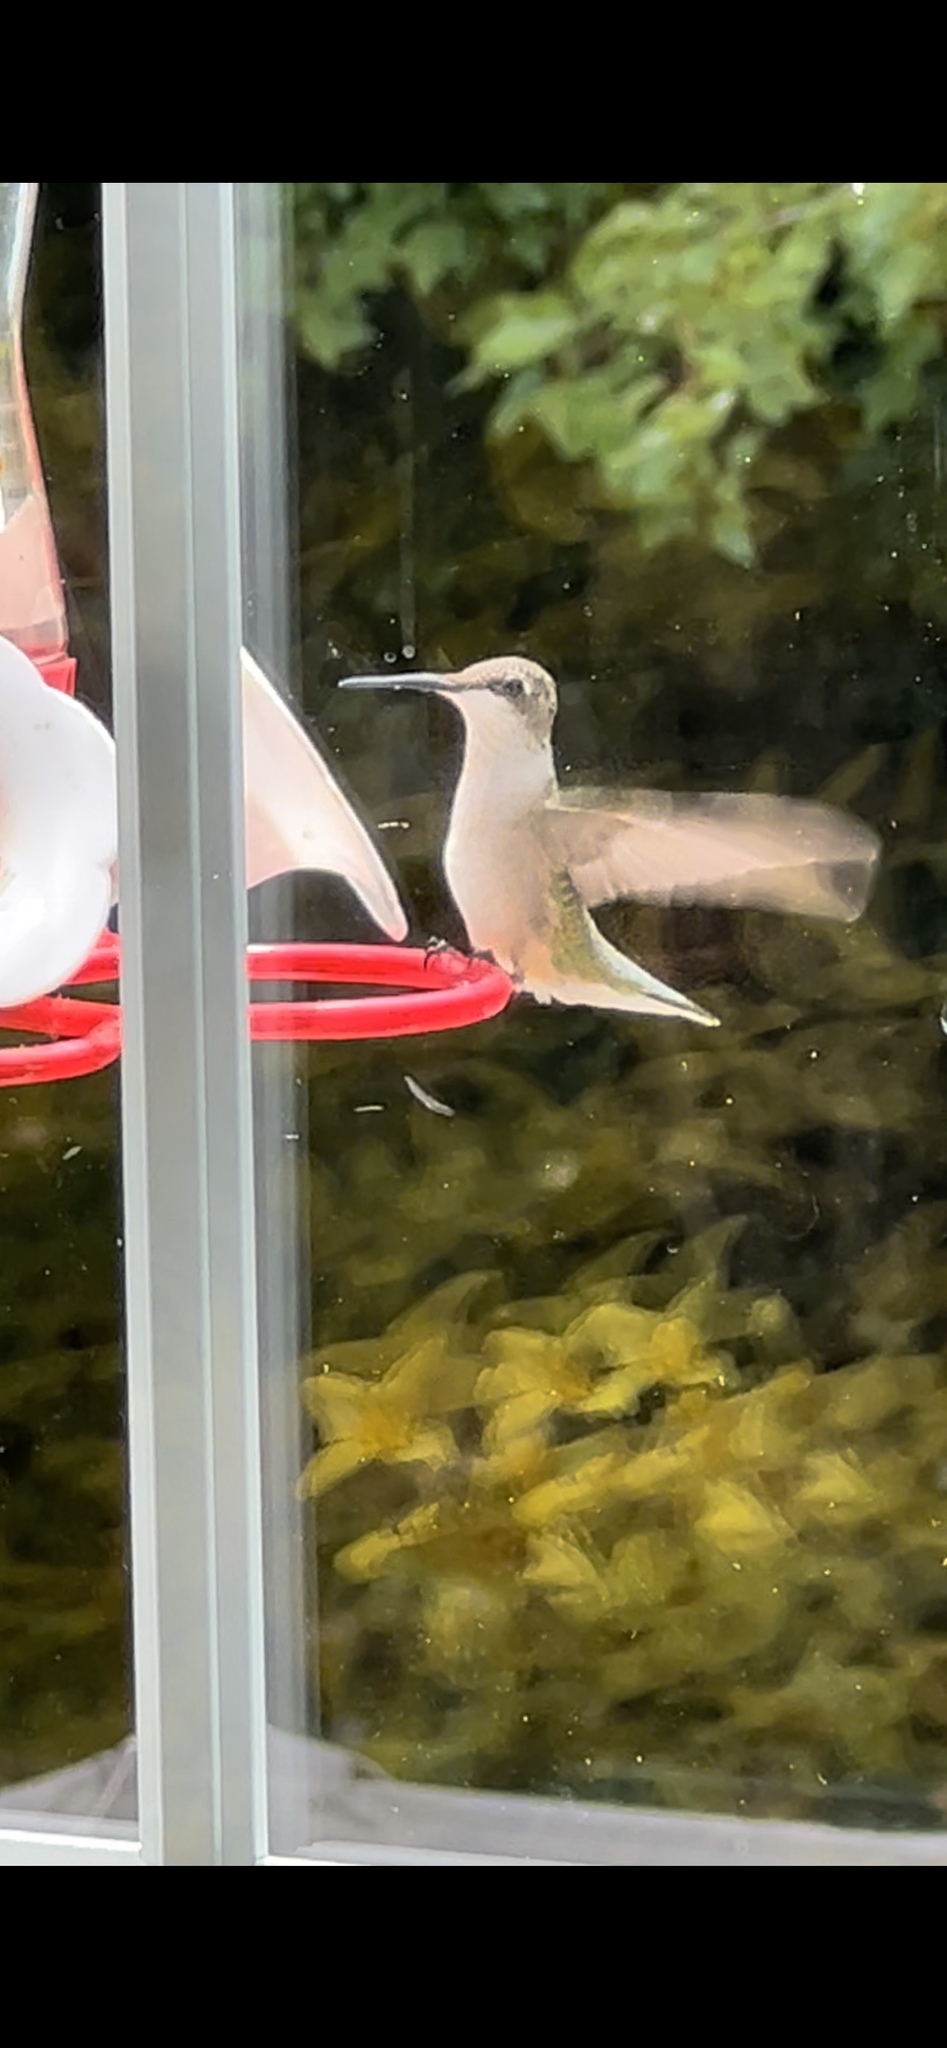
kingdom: Animalia
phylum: Chordata
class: Aves
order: Apodiformes
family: Trochilidae
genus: Archilochus
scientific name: Archilochus colubris
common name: Ruby-throated hummingbird
